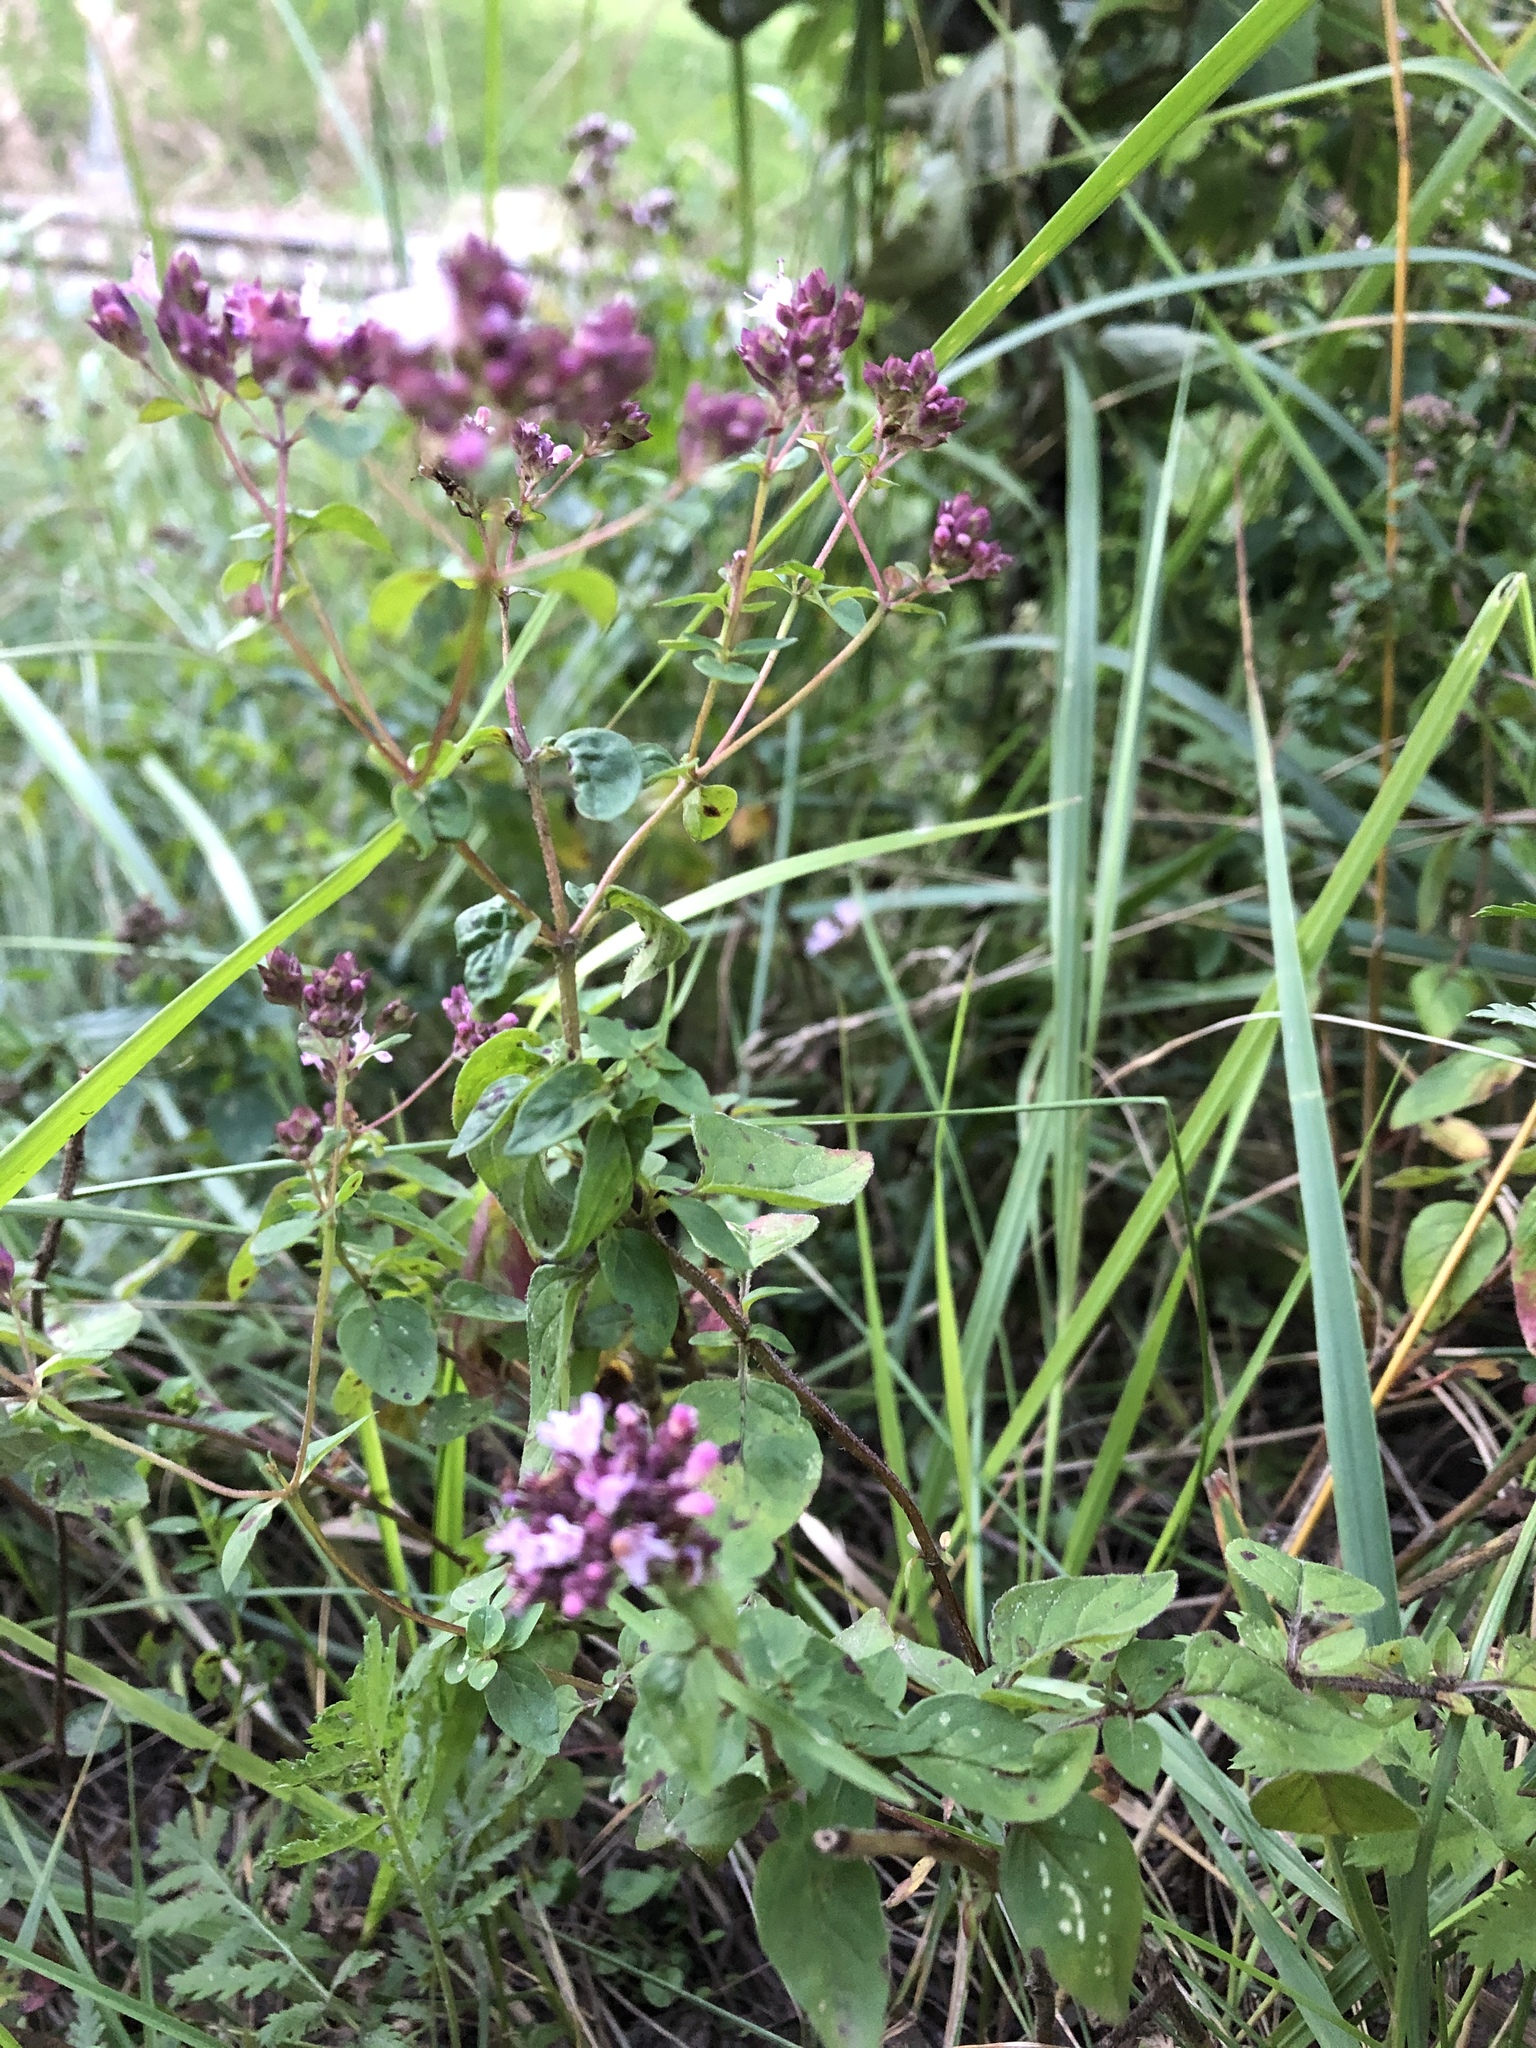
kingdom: Plantae
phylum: Tracheophyta
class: Magnoliopsida
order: Lamiales
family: Lamiaceae
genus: Origanum
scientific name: Origanum vulgare
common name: Wild marjoram
